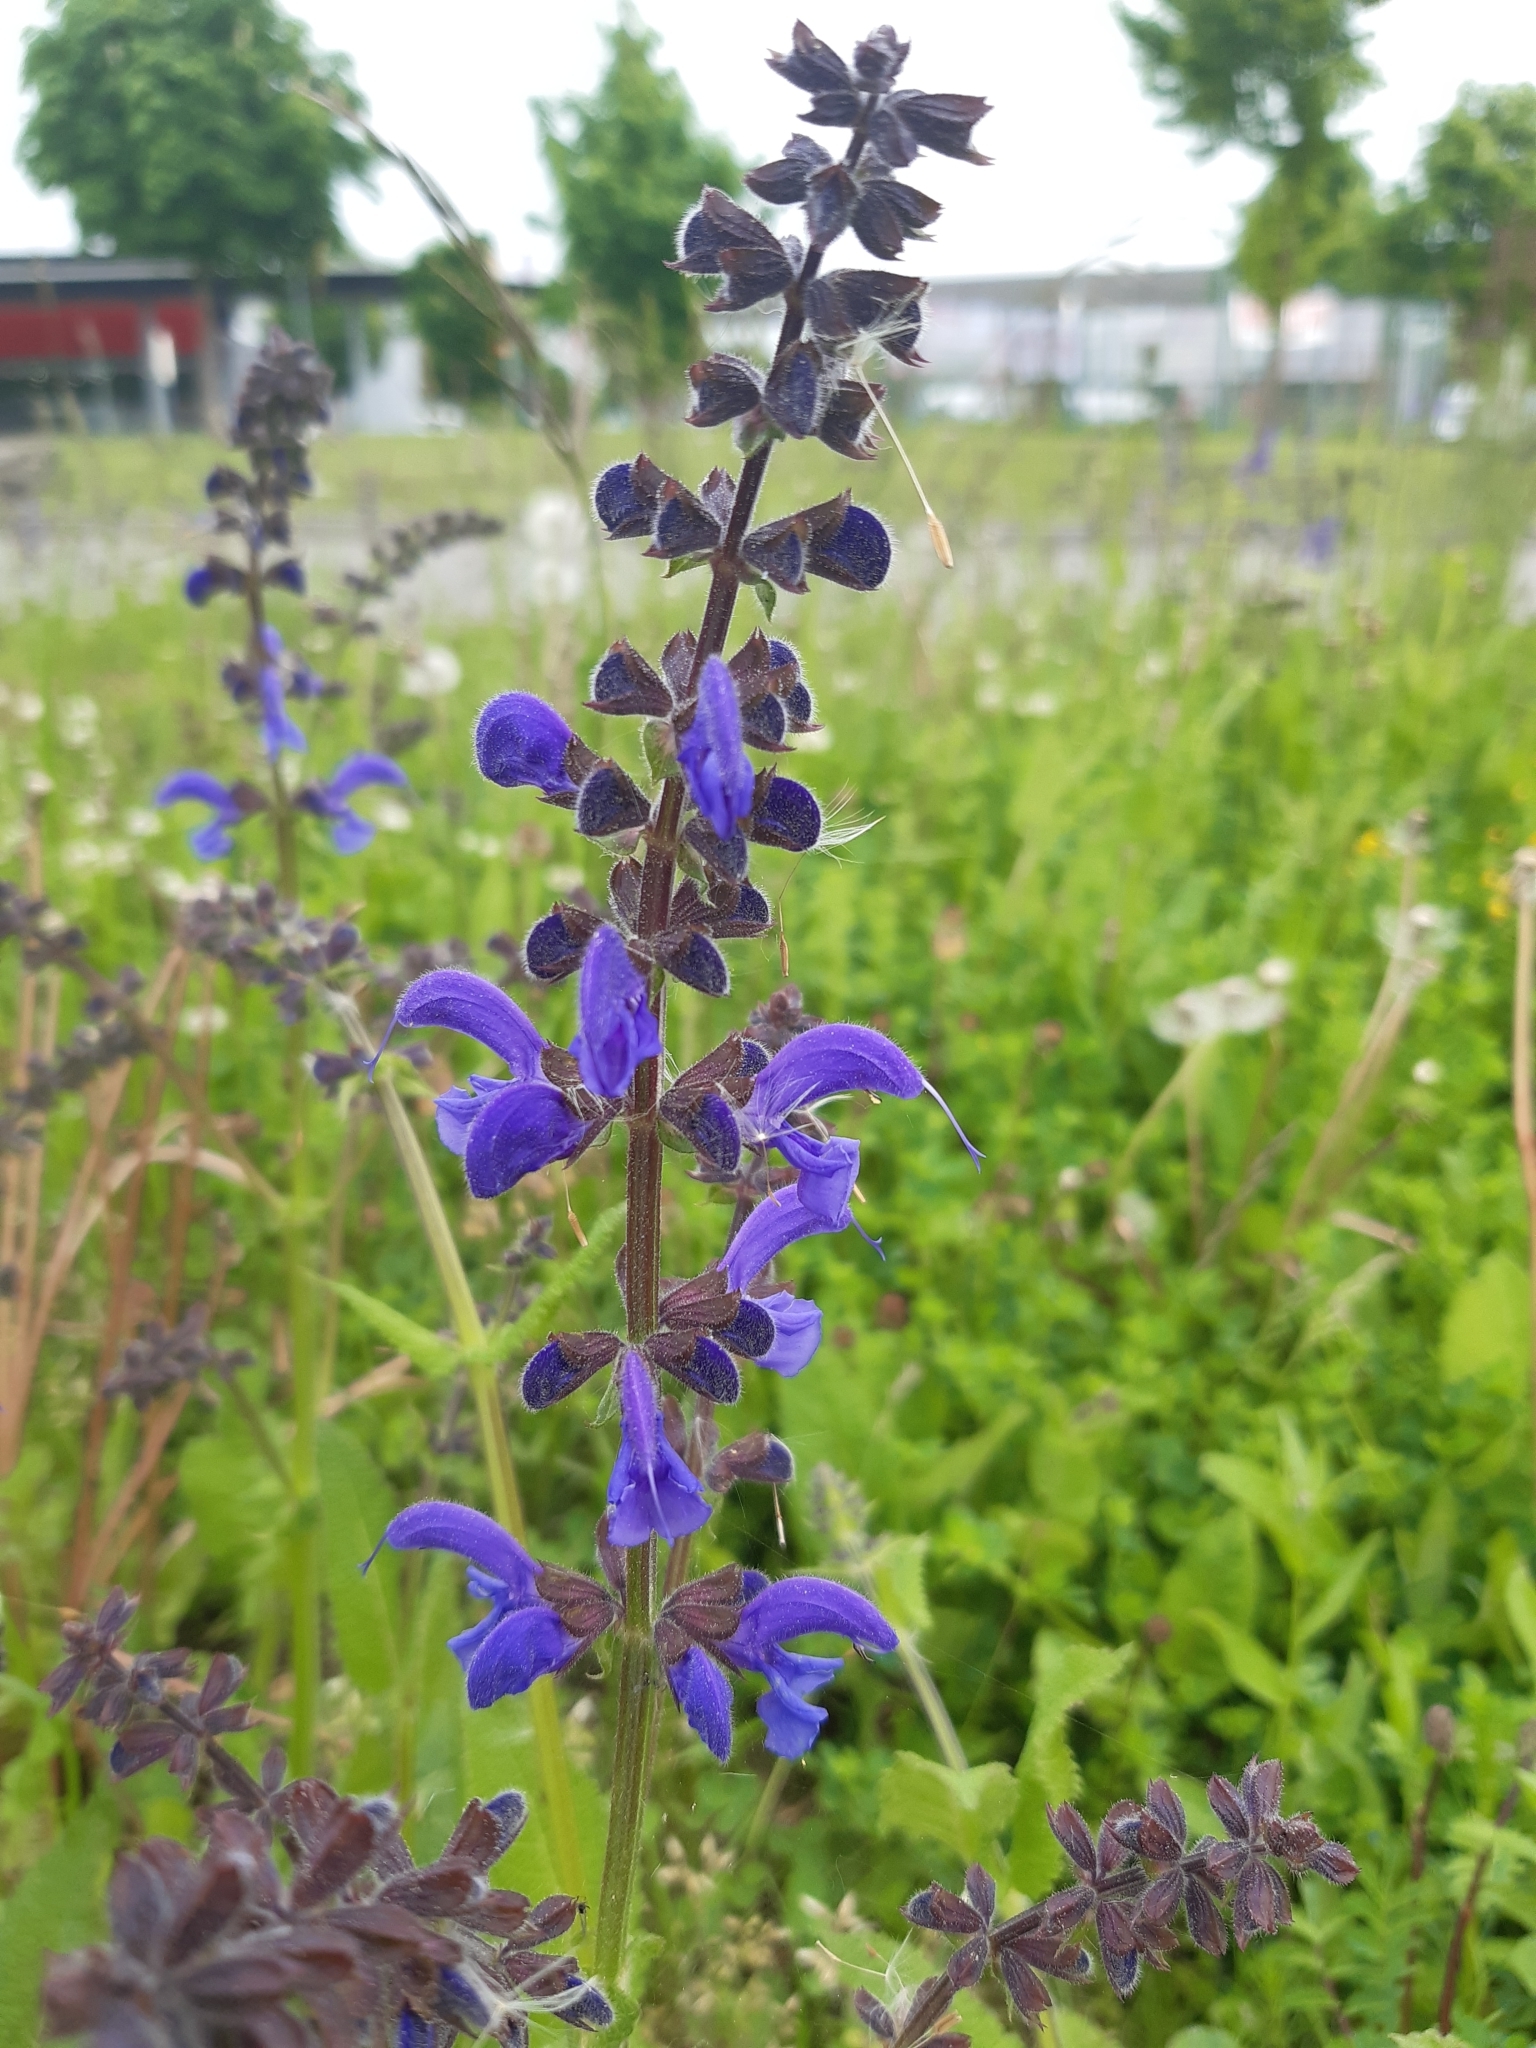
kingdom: Plantae
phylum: Tracheophyta
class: Magnoliopsida
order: Lamiales
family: Lamiaceae
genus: Salvia
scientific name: Salvia pratensis
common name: Meadow sage
